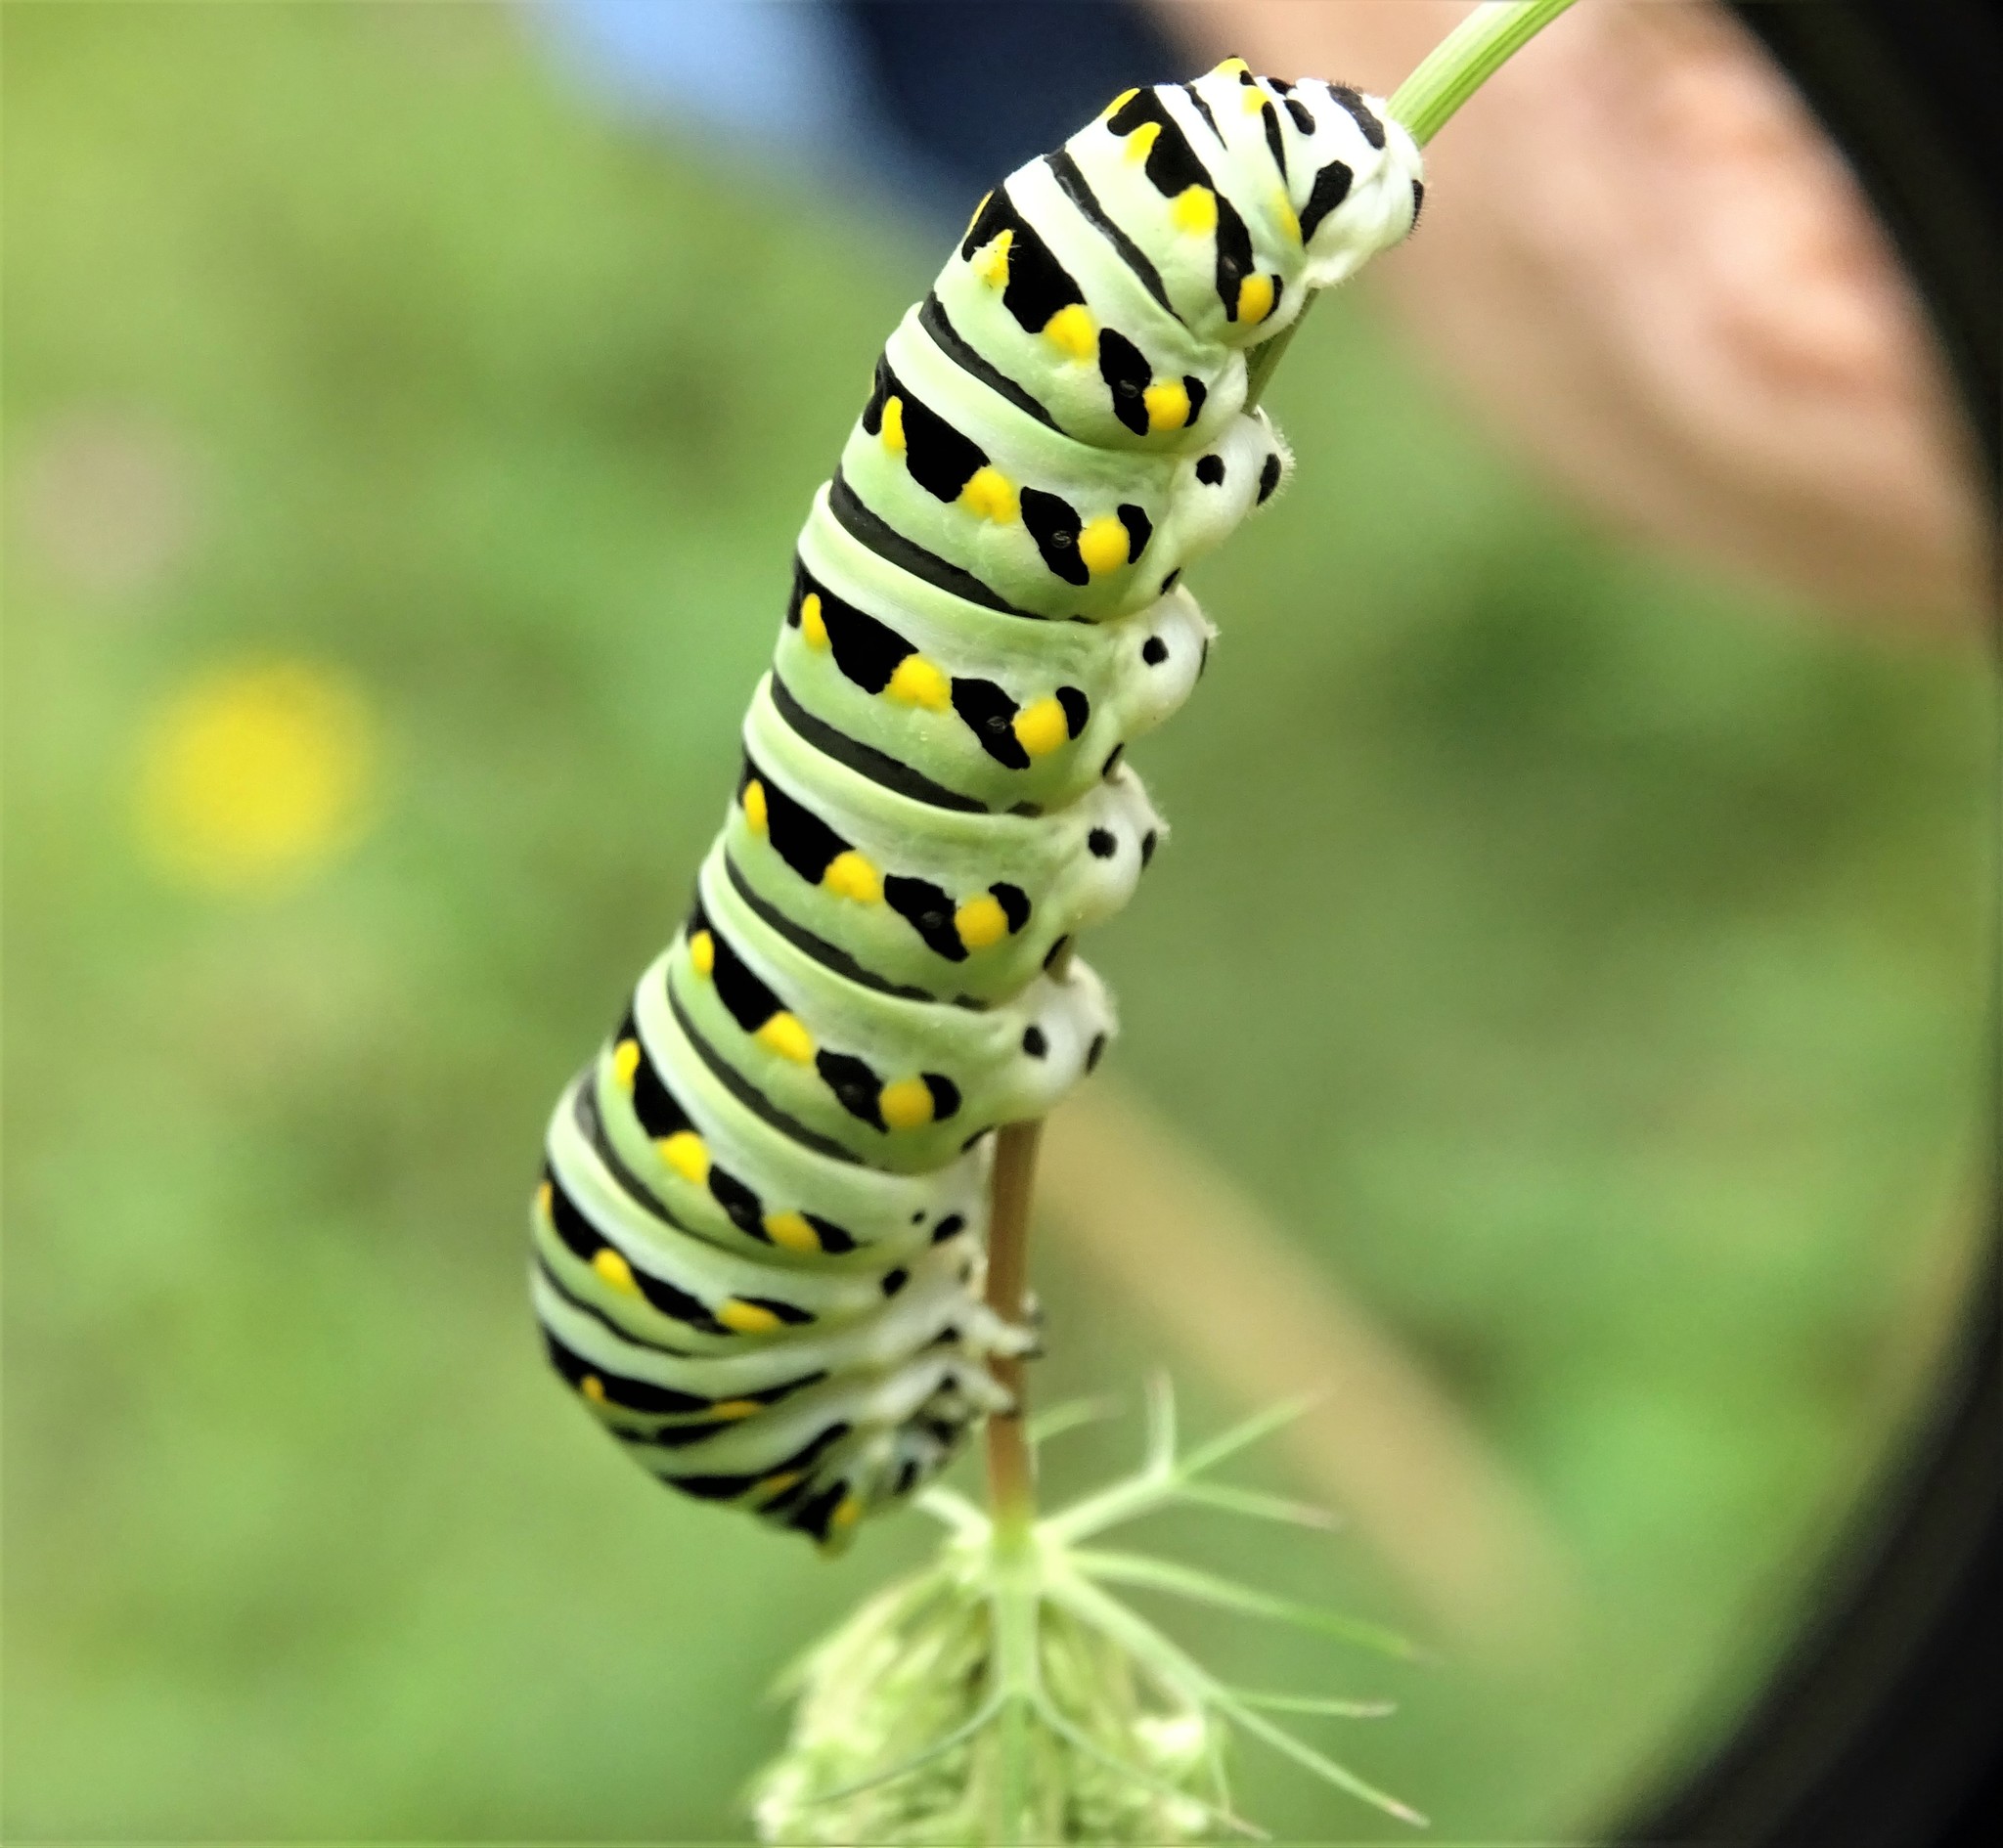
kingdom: Animalia
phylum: Arthropoda
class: Insecta
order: Lepidoptera
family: Papilionidae
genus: Papilio
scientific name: Papilio polyxenes
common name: Black swallowtail
